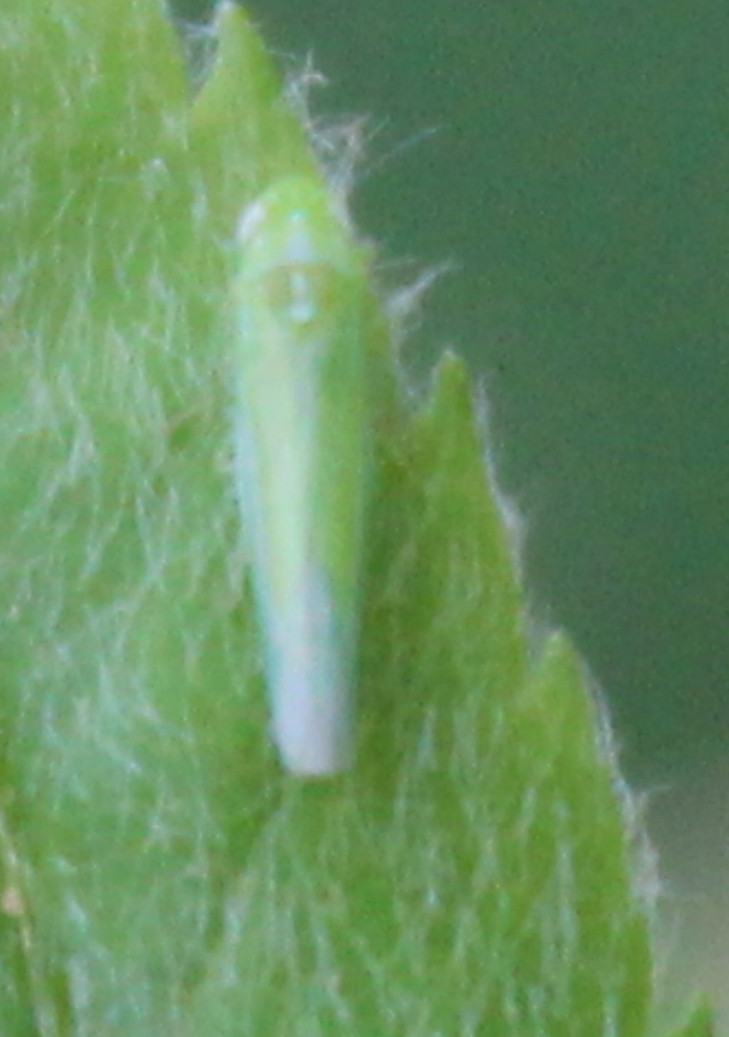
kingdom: Animalia
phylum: Arthropoda
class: Insecta
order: Hemiptera
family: Cicadellidae
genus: Hebata
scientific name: Hebata vitis
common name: The smaller green leafhopper
